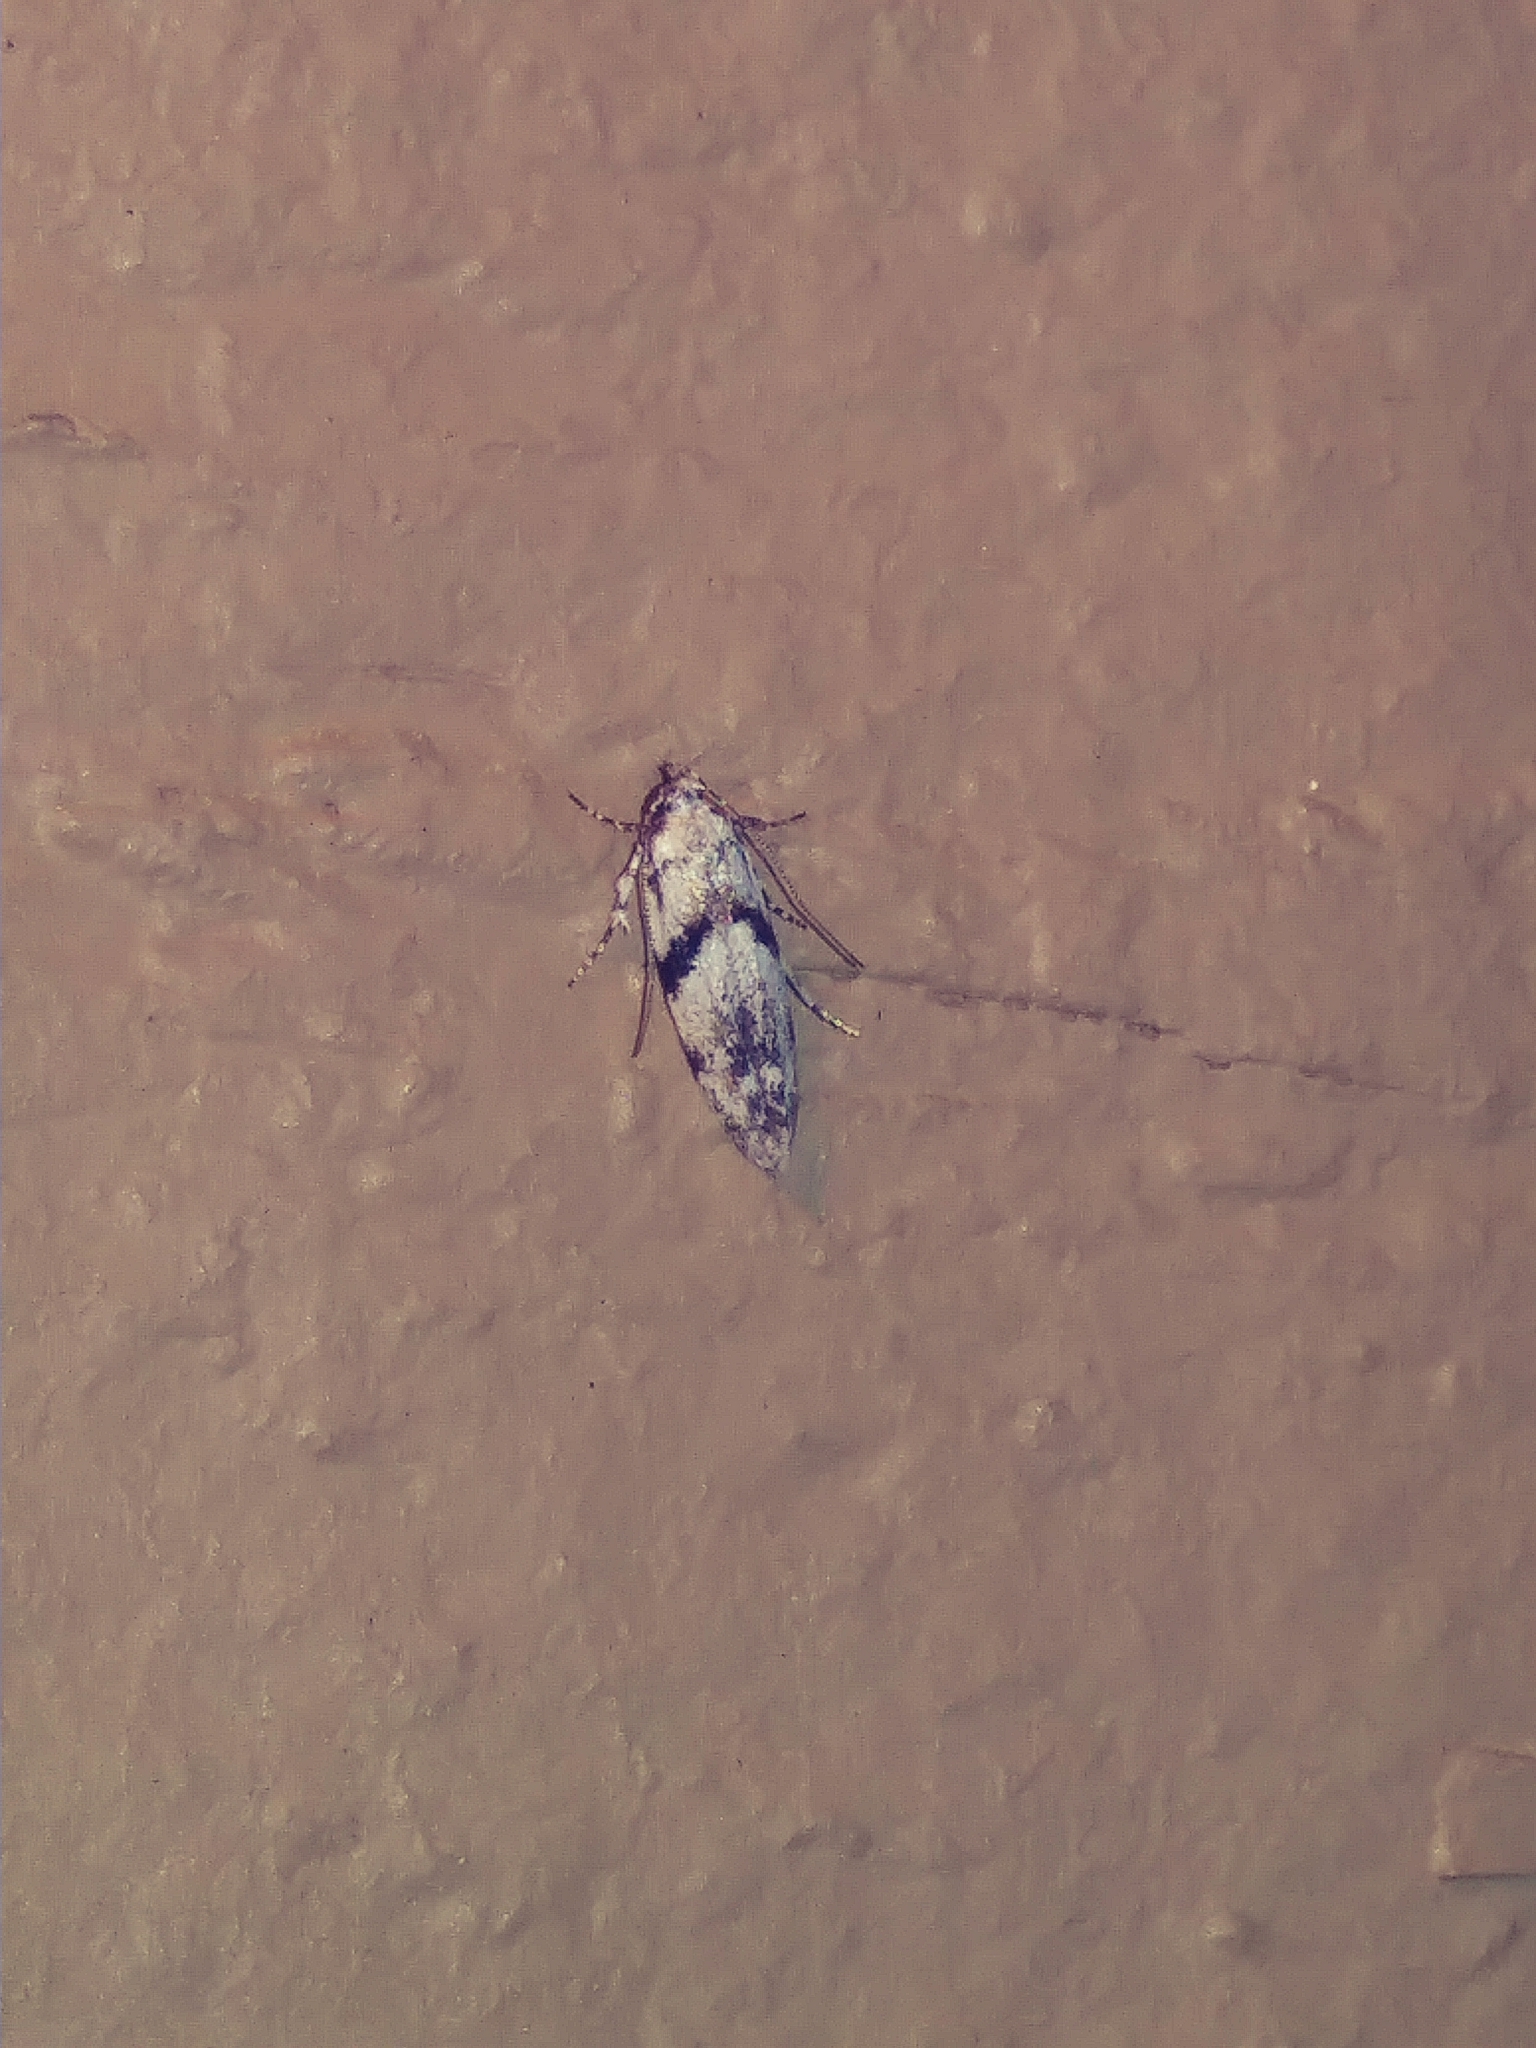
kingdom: Animalia
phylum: Arthropoda
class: Insecta
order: Lepidoptera
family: Gelechiidae
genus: Arogalea
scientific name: Arogalea cristifasciella
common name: White stripe-backed moth
